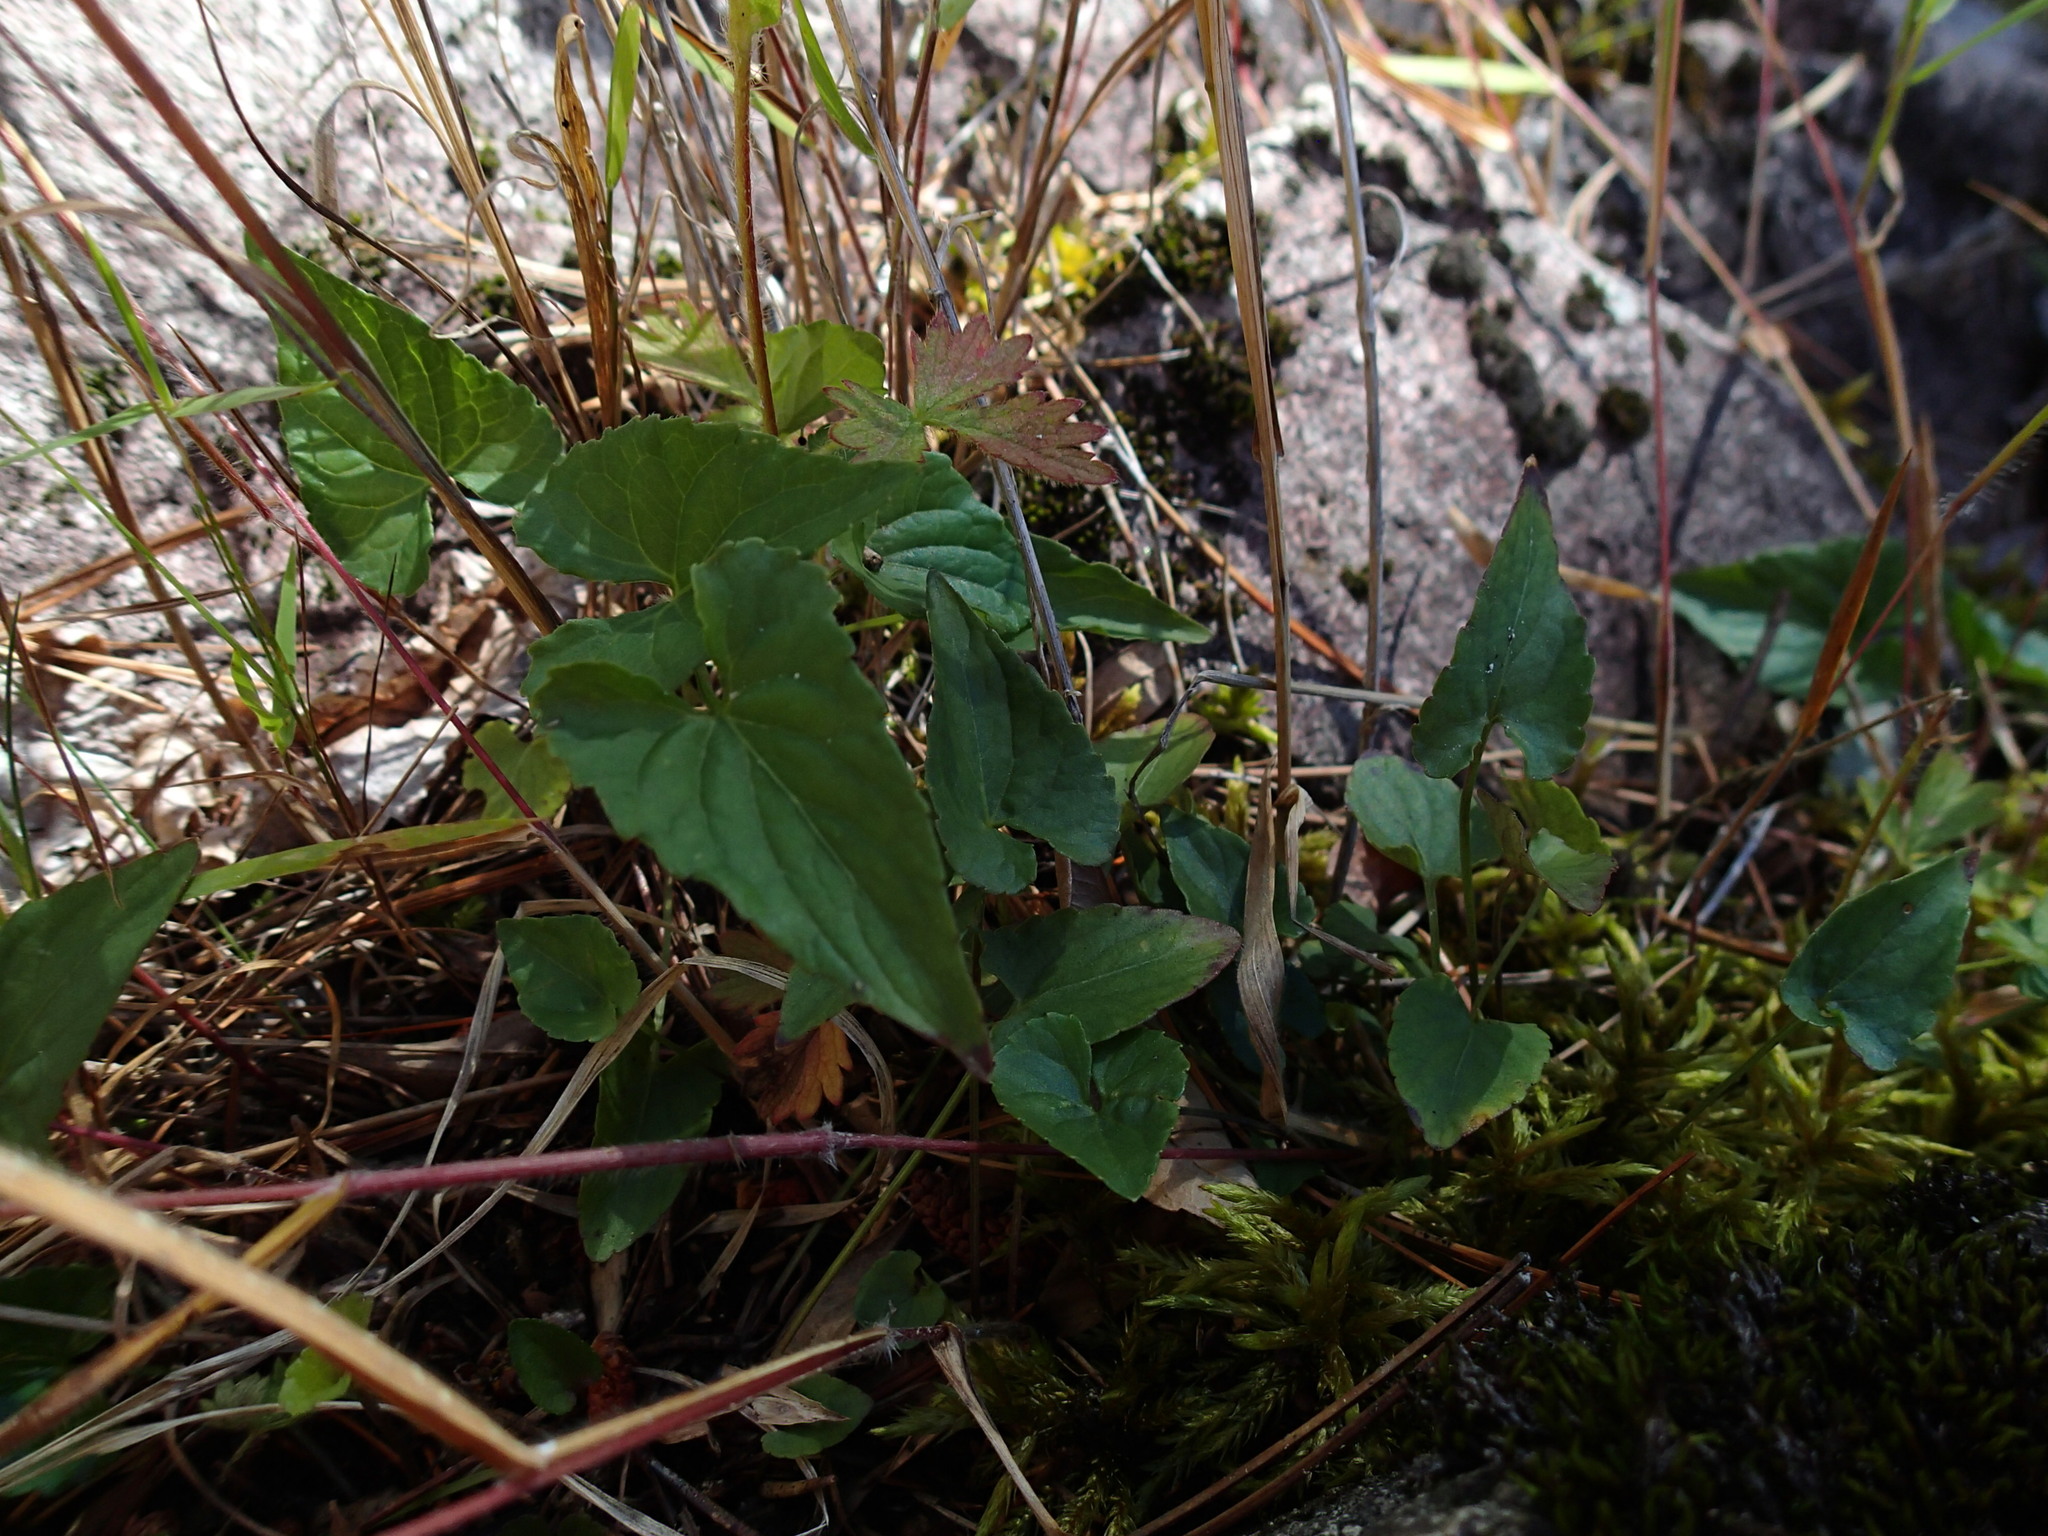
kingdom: Plantae
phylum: Tracheophyta
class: Magnoliopsida
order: Malpighiales
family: Violaceae
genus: Viola
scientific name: Viola novae-angliae
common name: New england blue violet
